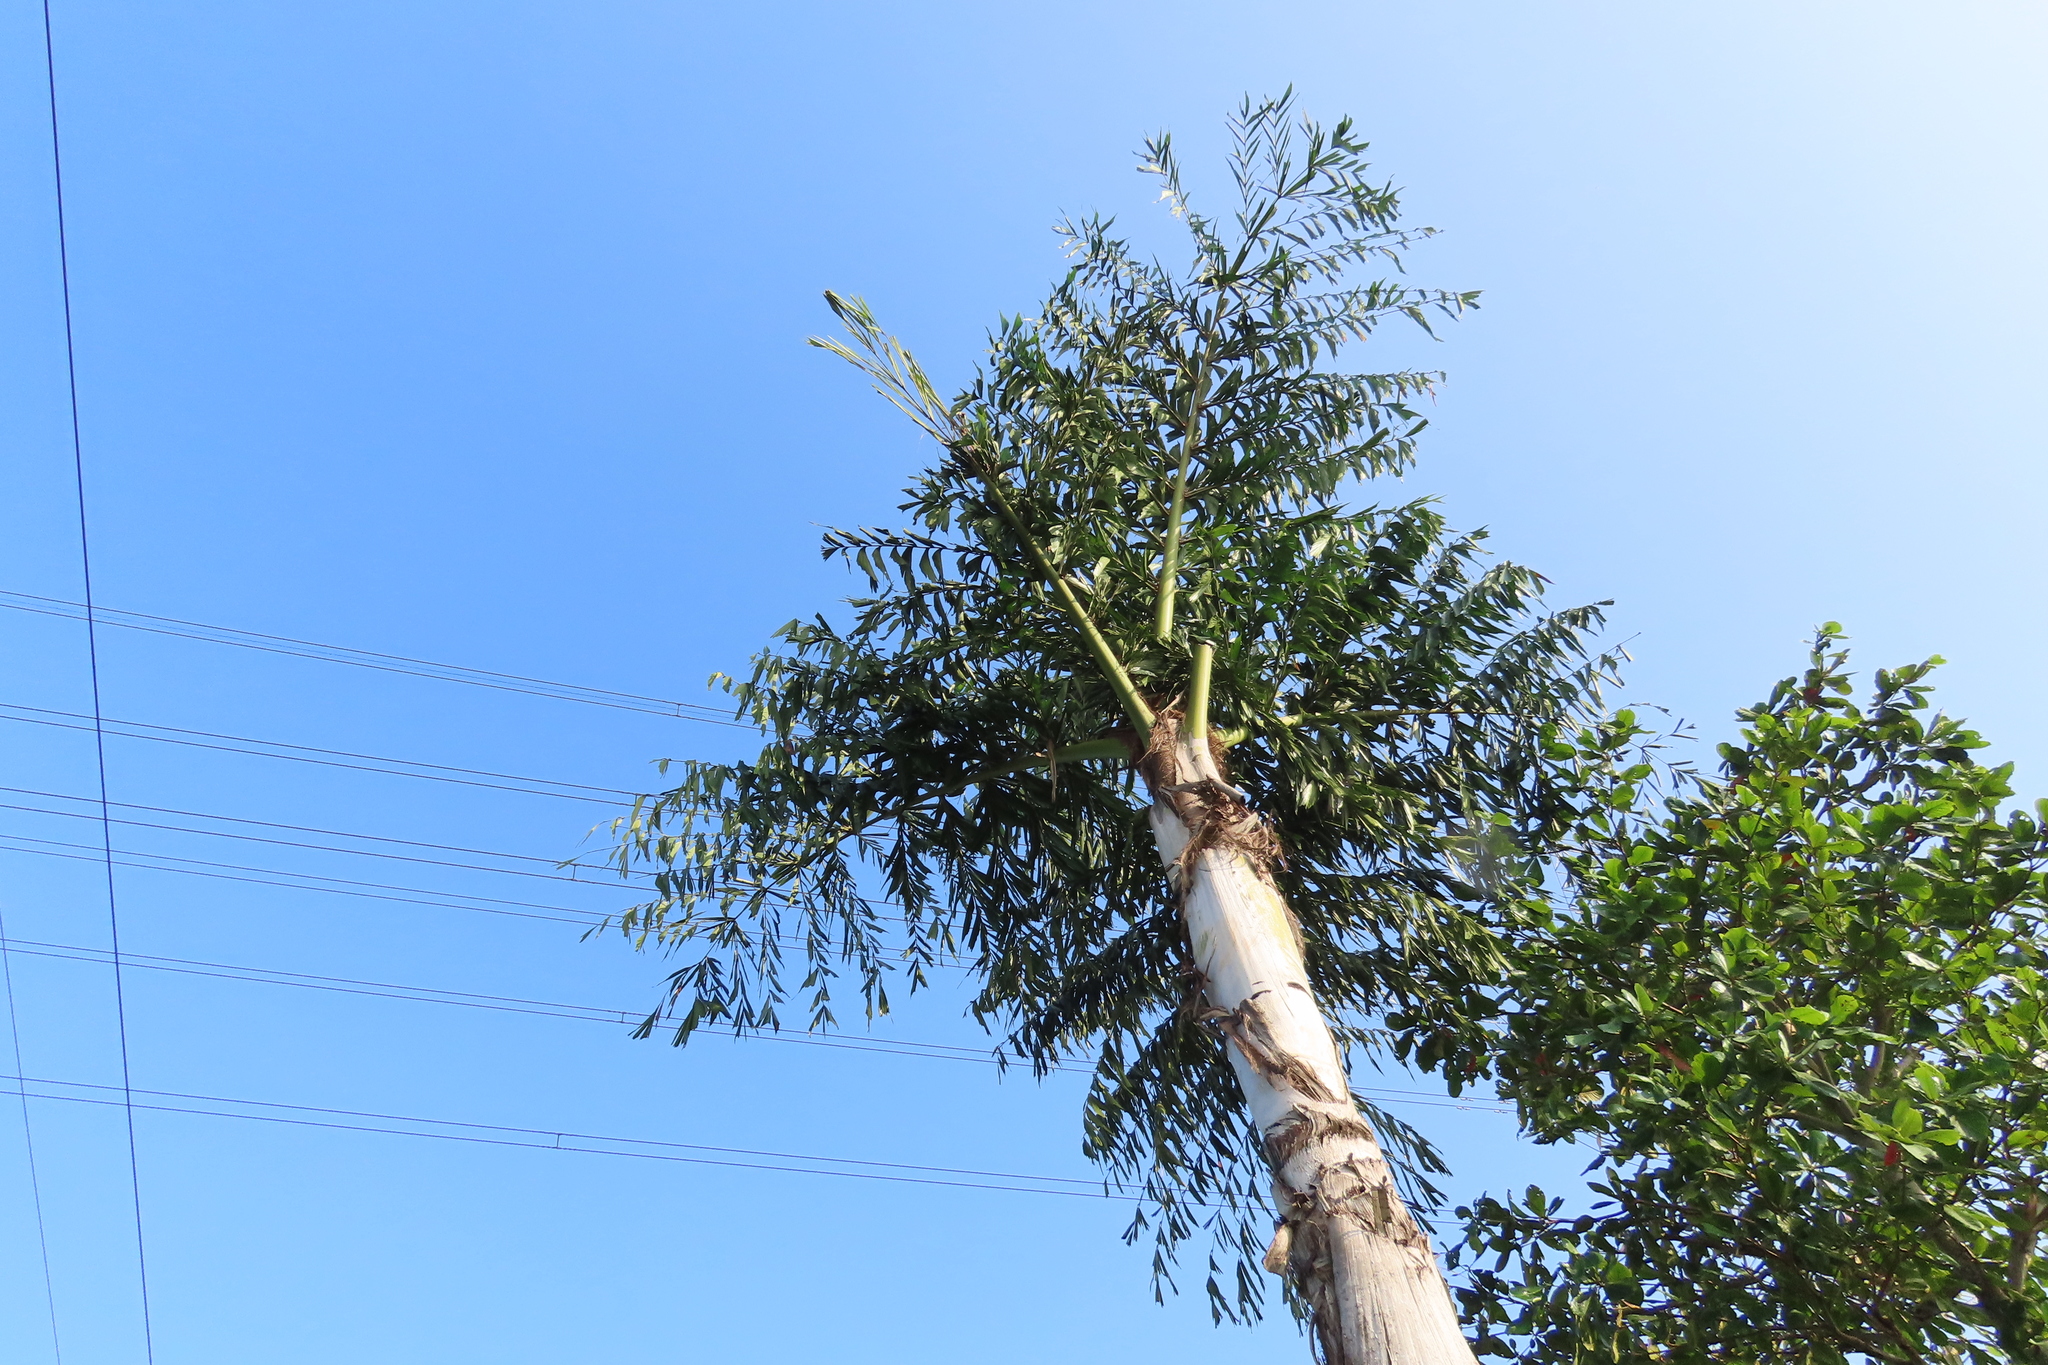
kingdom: Plantae
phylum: Tracheophyta
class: Liliopsida
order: Arecales
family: Arecaceae
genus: Caryota
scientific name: Caryota urens
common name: Jaggery palm
